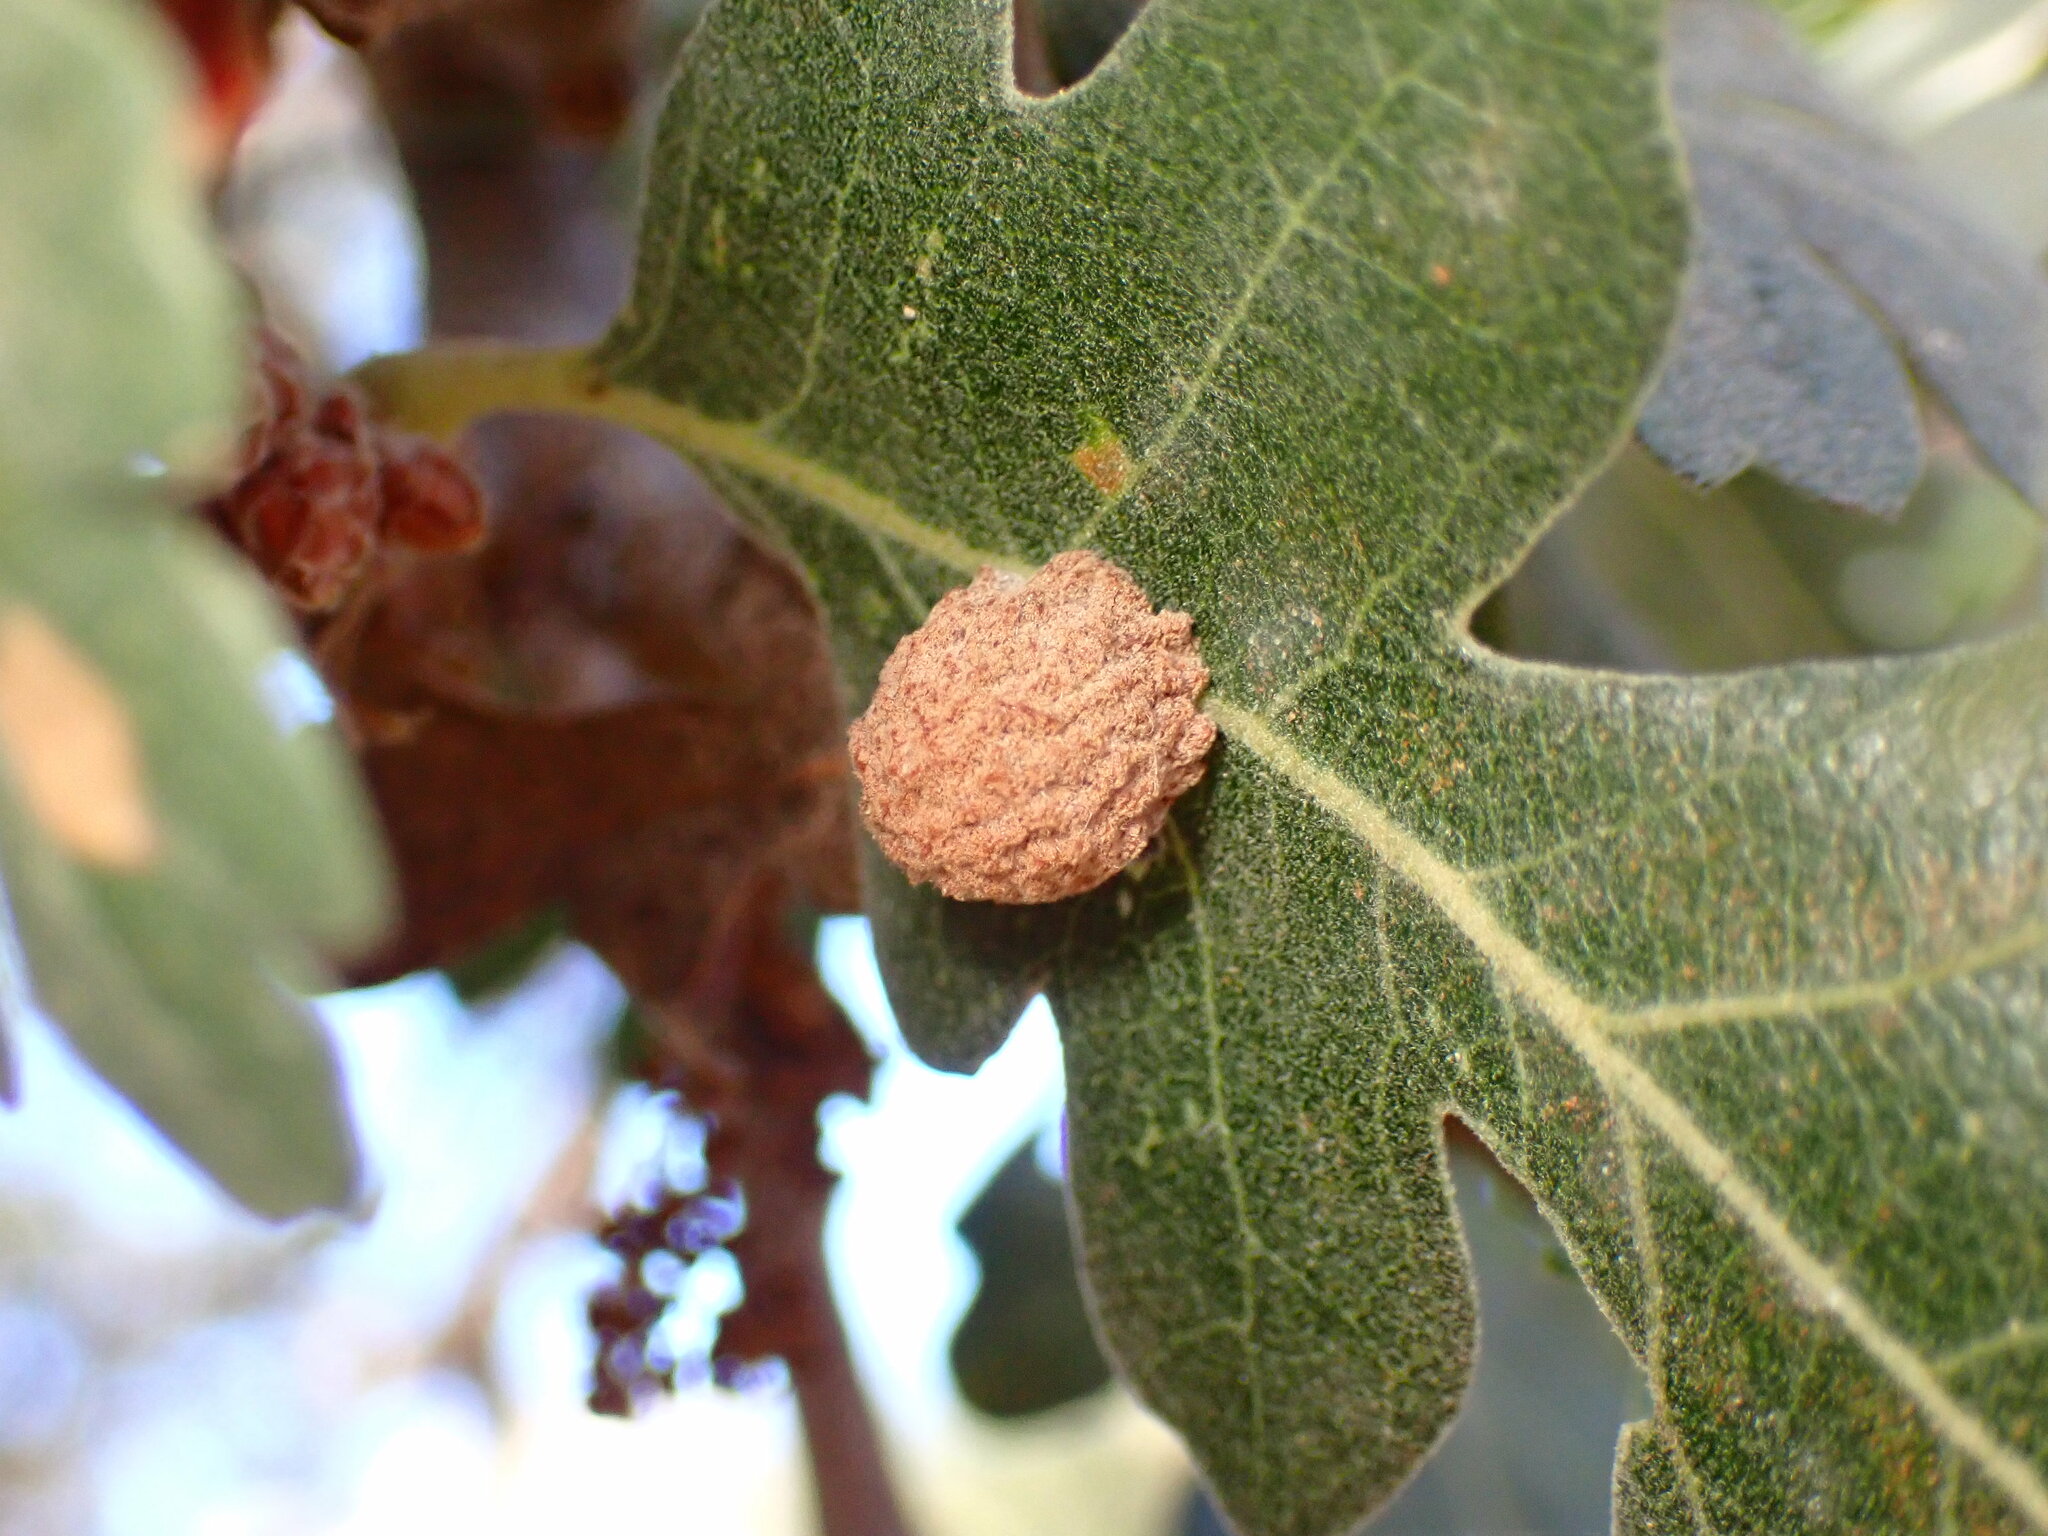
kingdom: Animalia
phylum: Arthropoda
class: Insecta
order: Hymenoptera
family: Cynipidae
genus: Cynips
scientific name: Cynips conspicua
